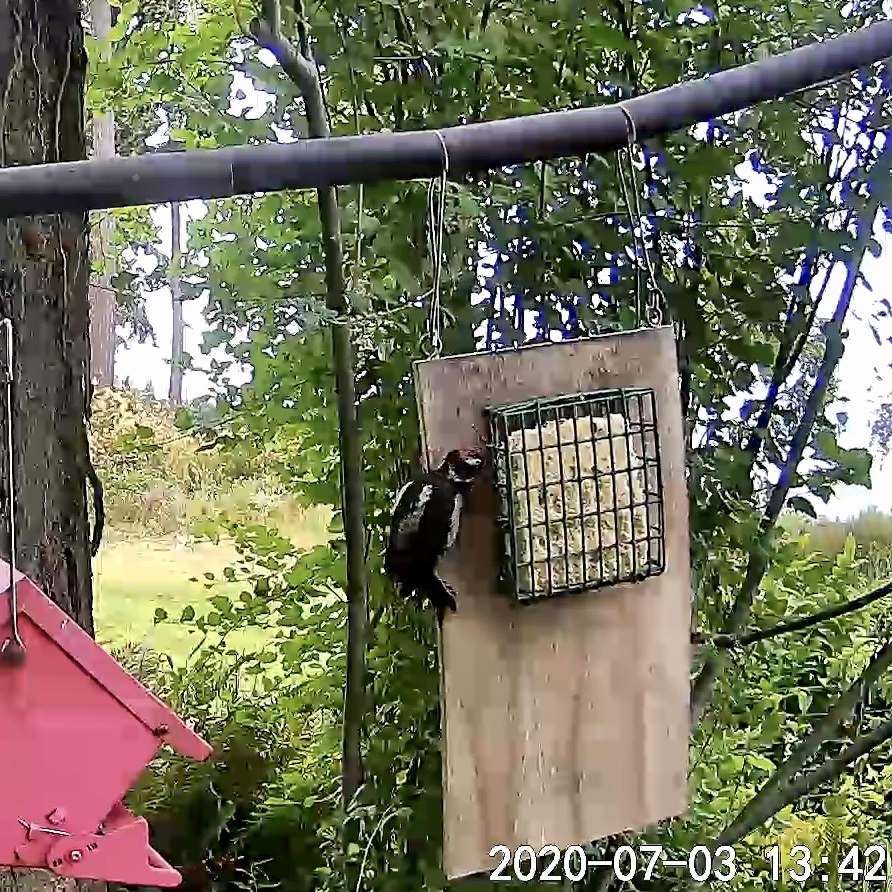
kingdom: Animalia
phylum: Chordata
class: Aves
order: Piciformes
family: Picidae
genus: Dryobates
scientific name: Dryobates pubescens
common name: Downy woodpecker
